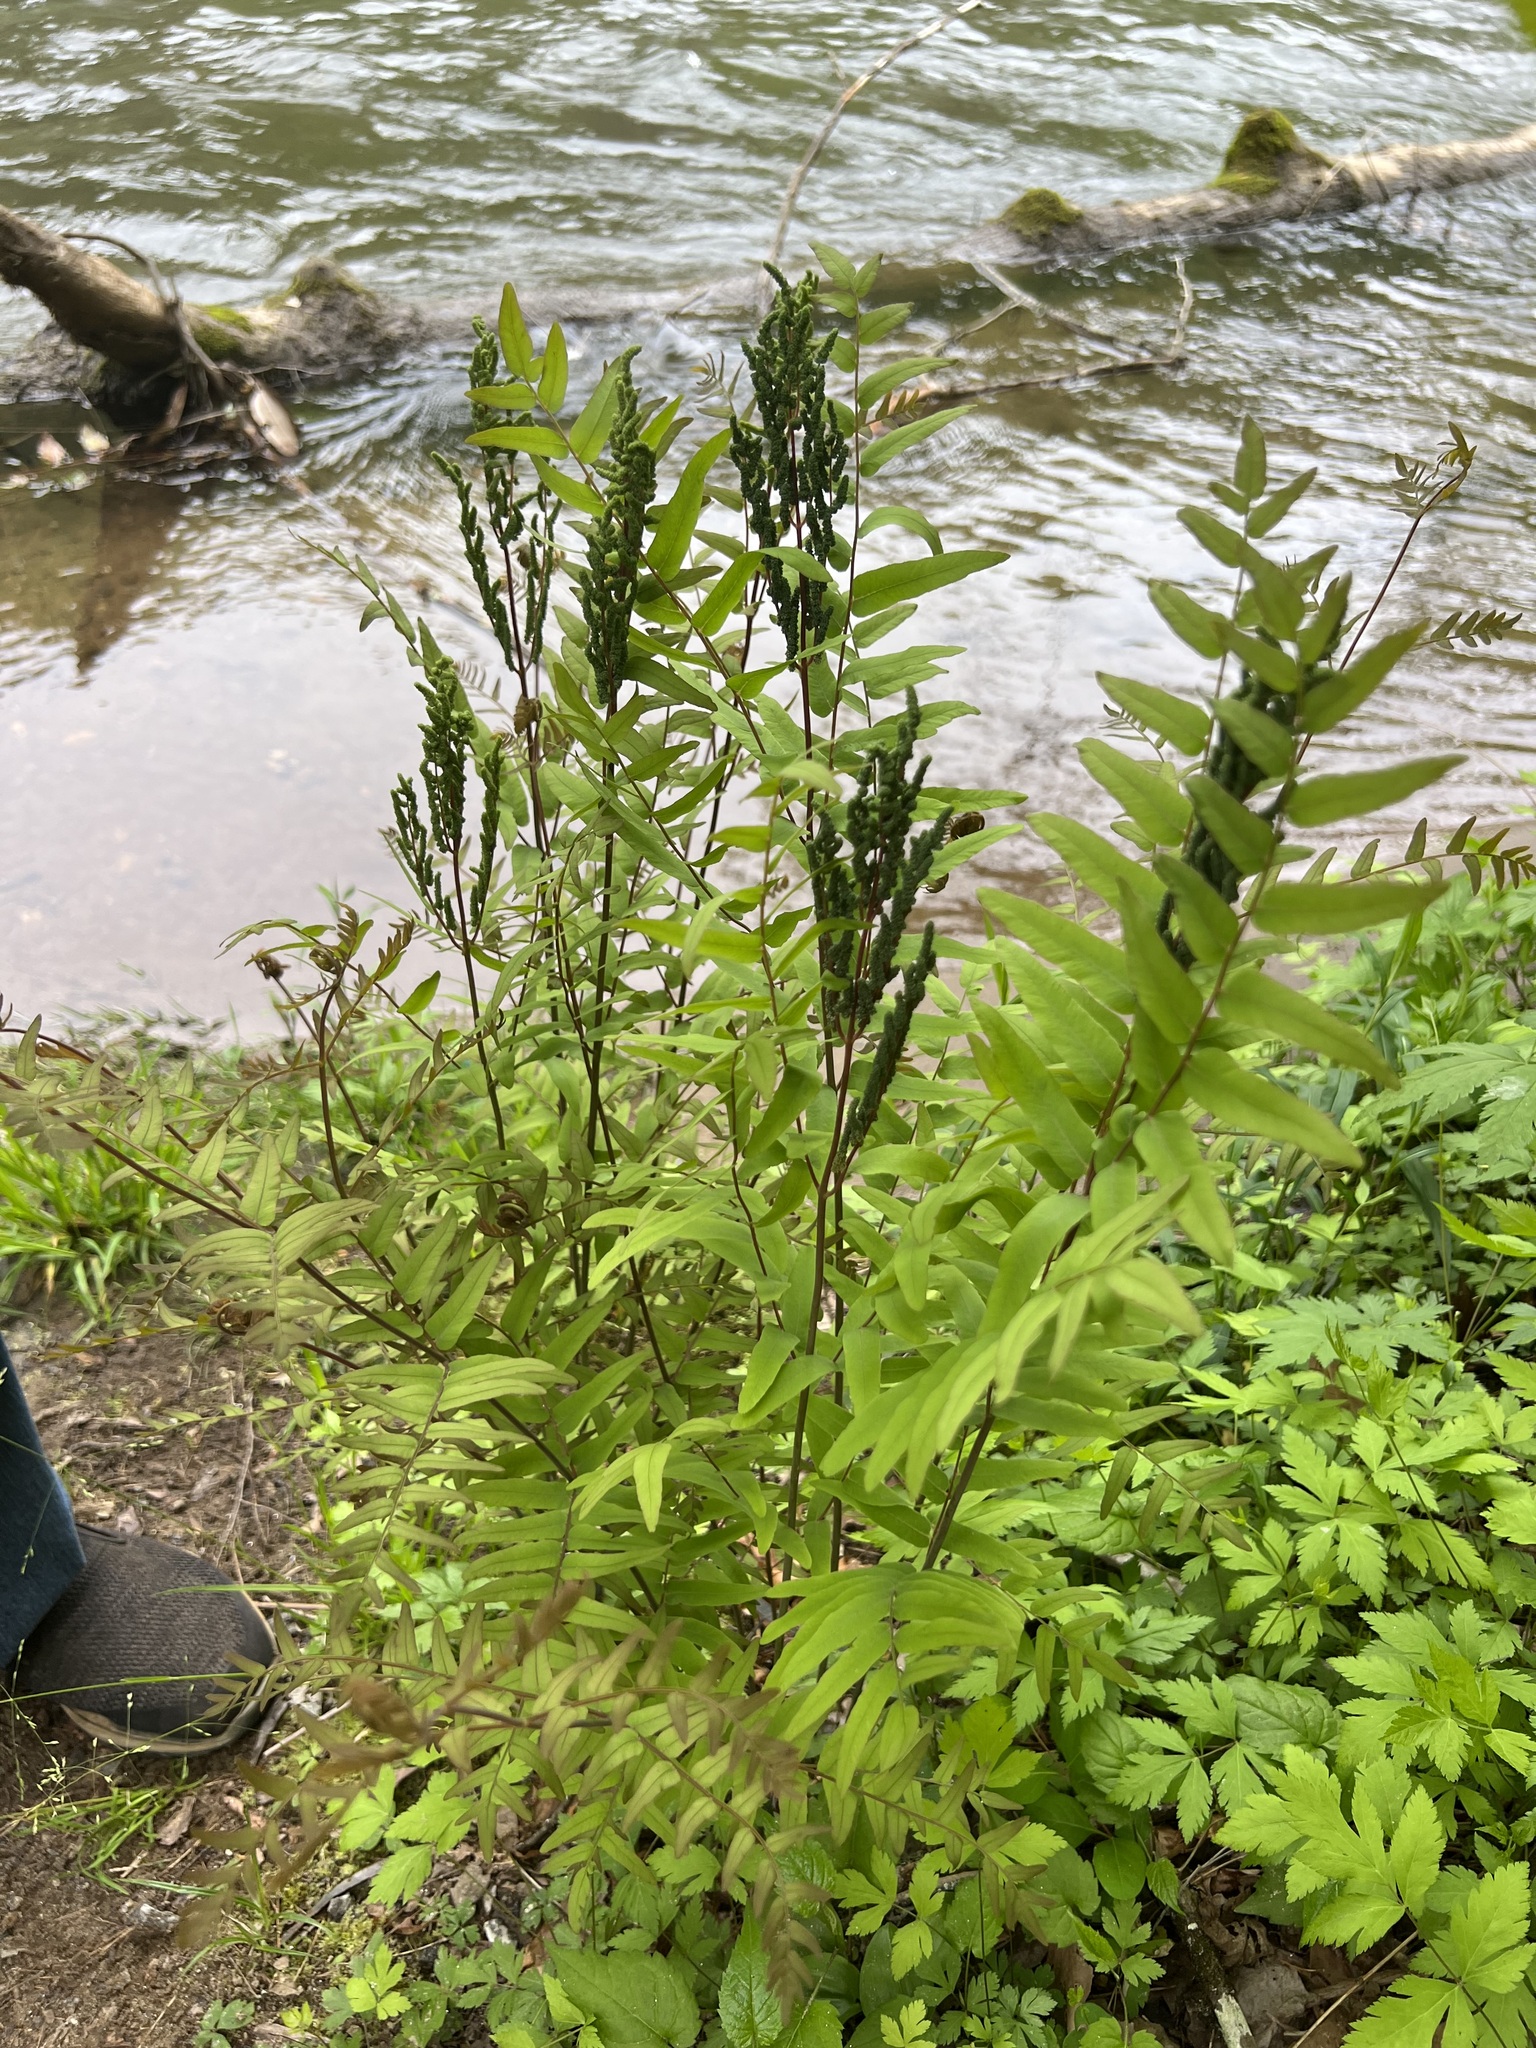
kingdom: Plantae
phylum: Tracheophyta
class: Polypodiopsida
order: Osmundales
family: Osmundaceae
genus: Osmunda
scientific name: Osmunda spectabilis
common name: American royal fern
